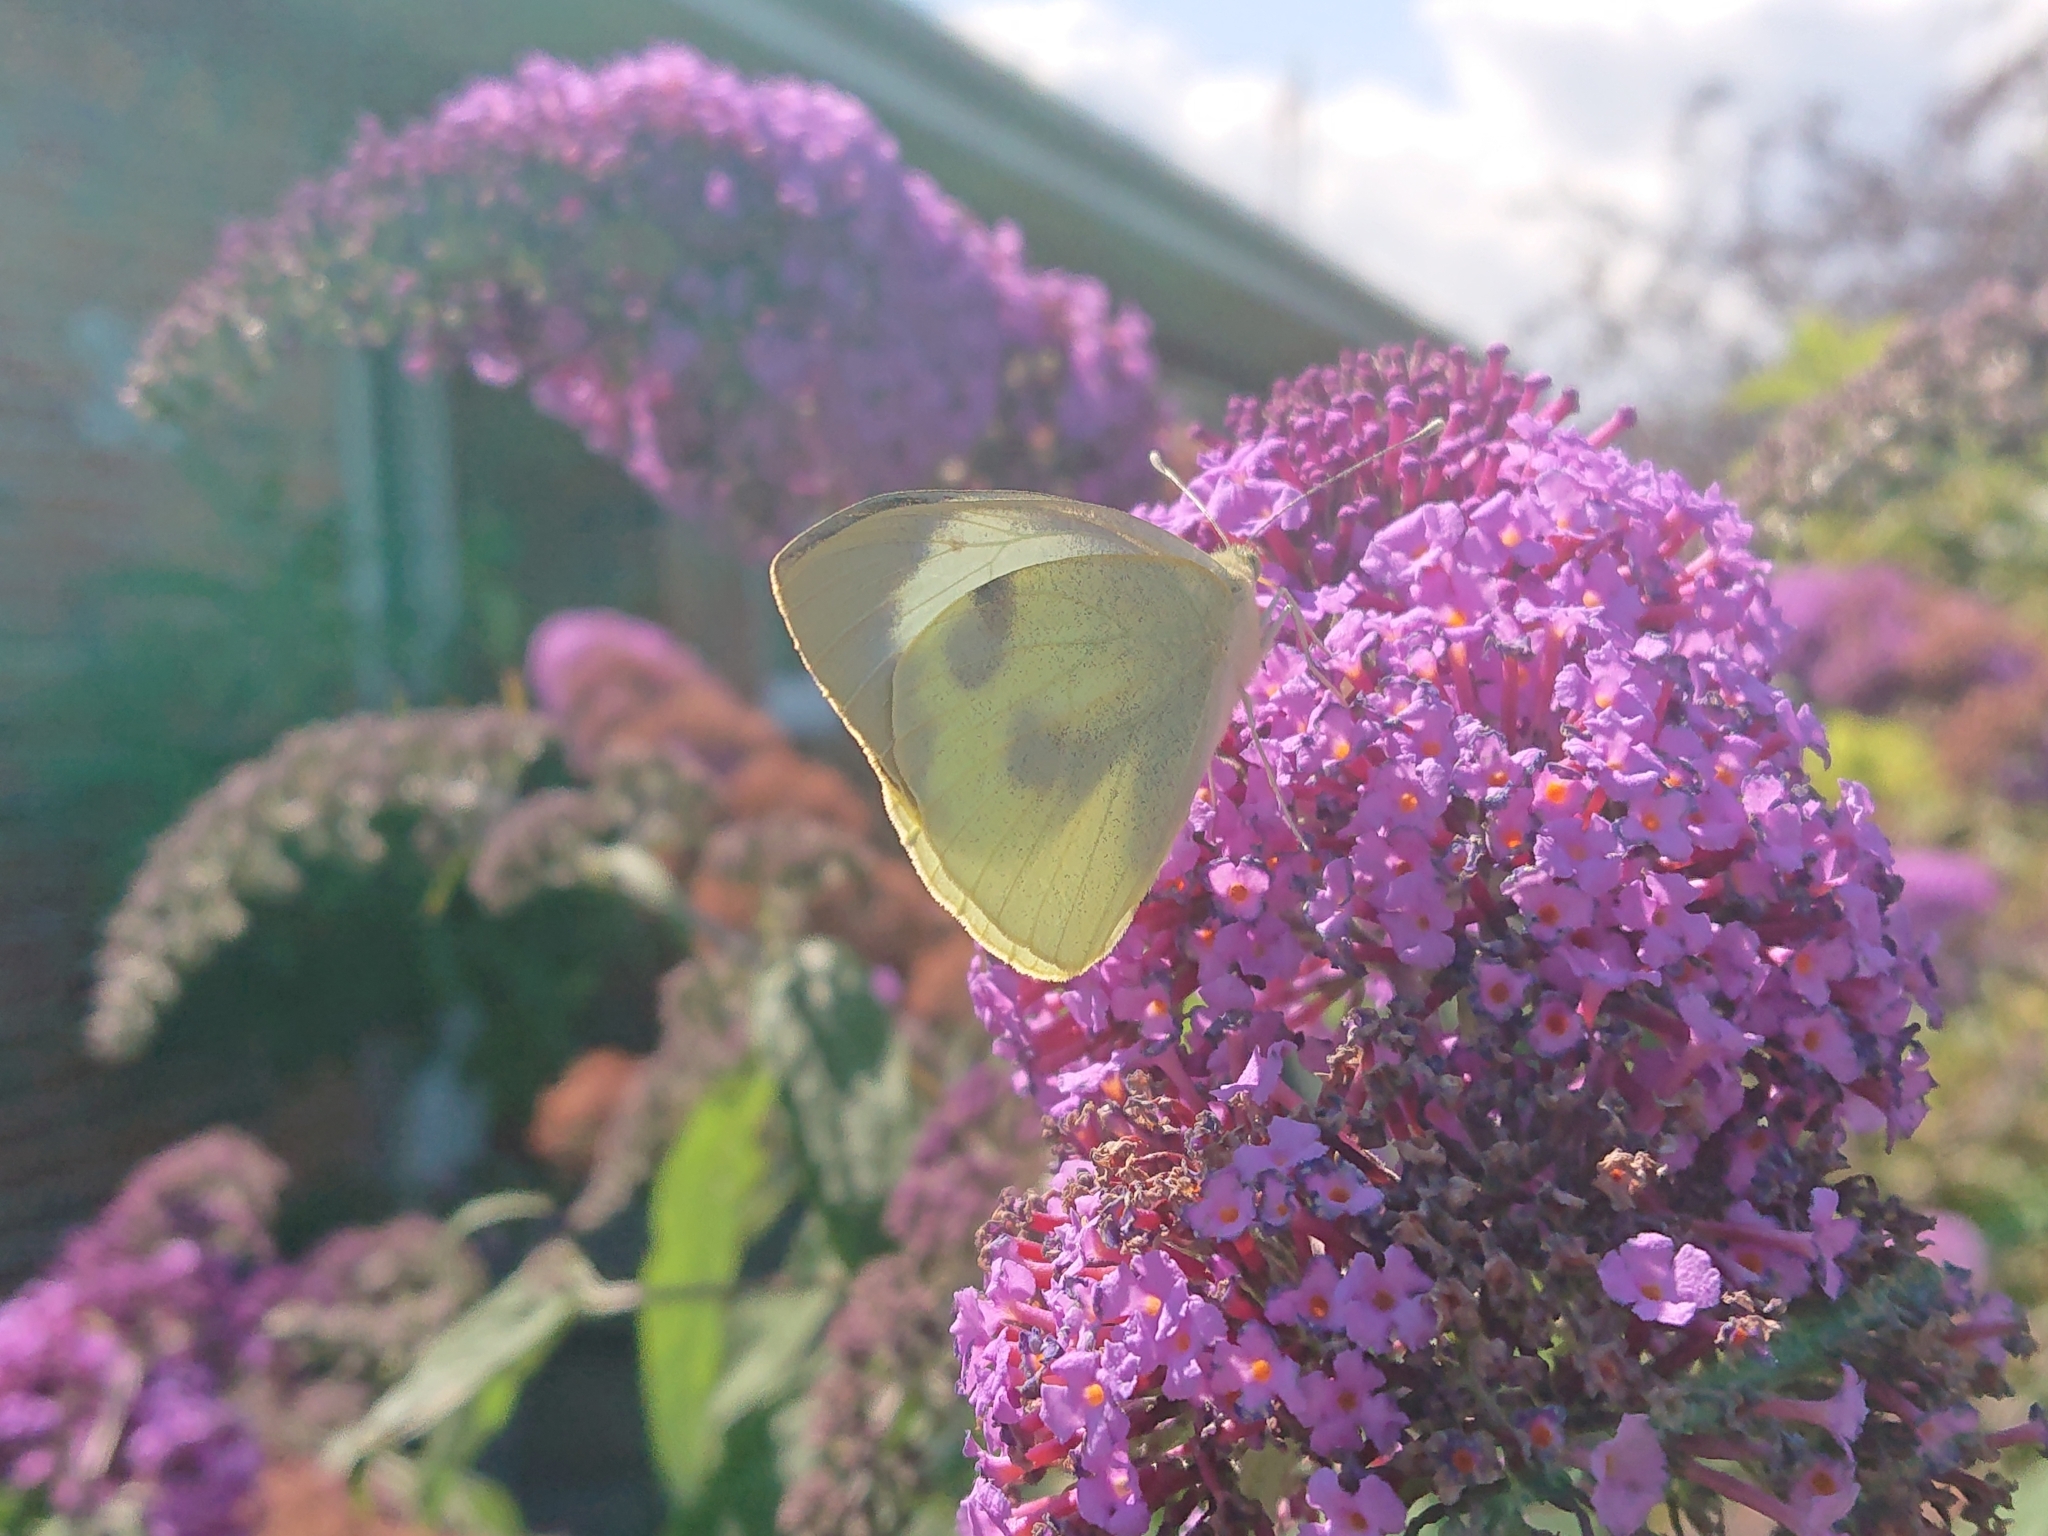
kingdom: Animalia
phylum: Arthropoda
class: Insecta
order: Lepidoptera
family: Pieridae
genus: Pieris
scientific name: Pieris brassicae
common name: Large white
